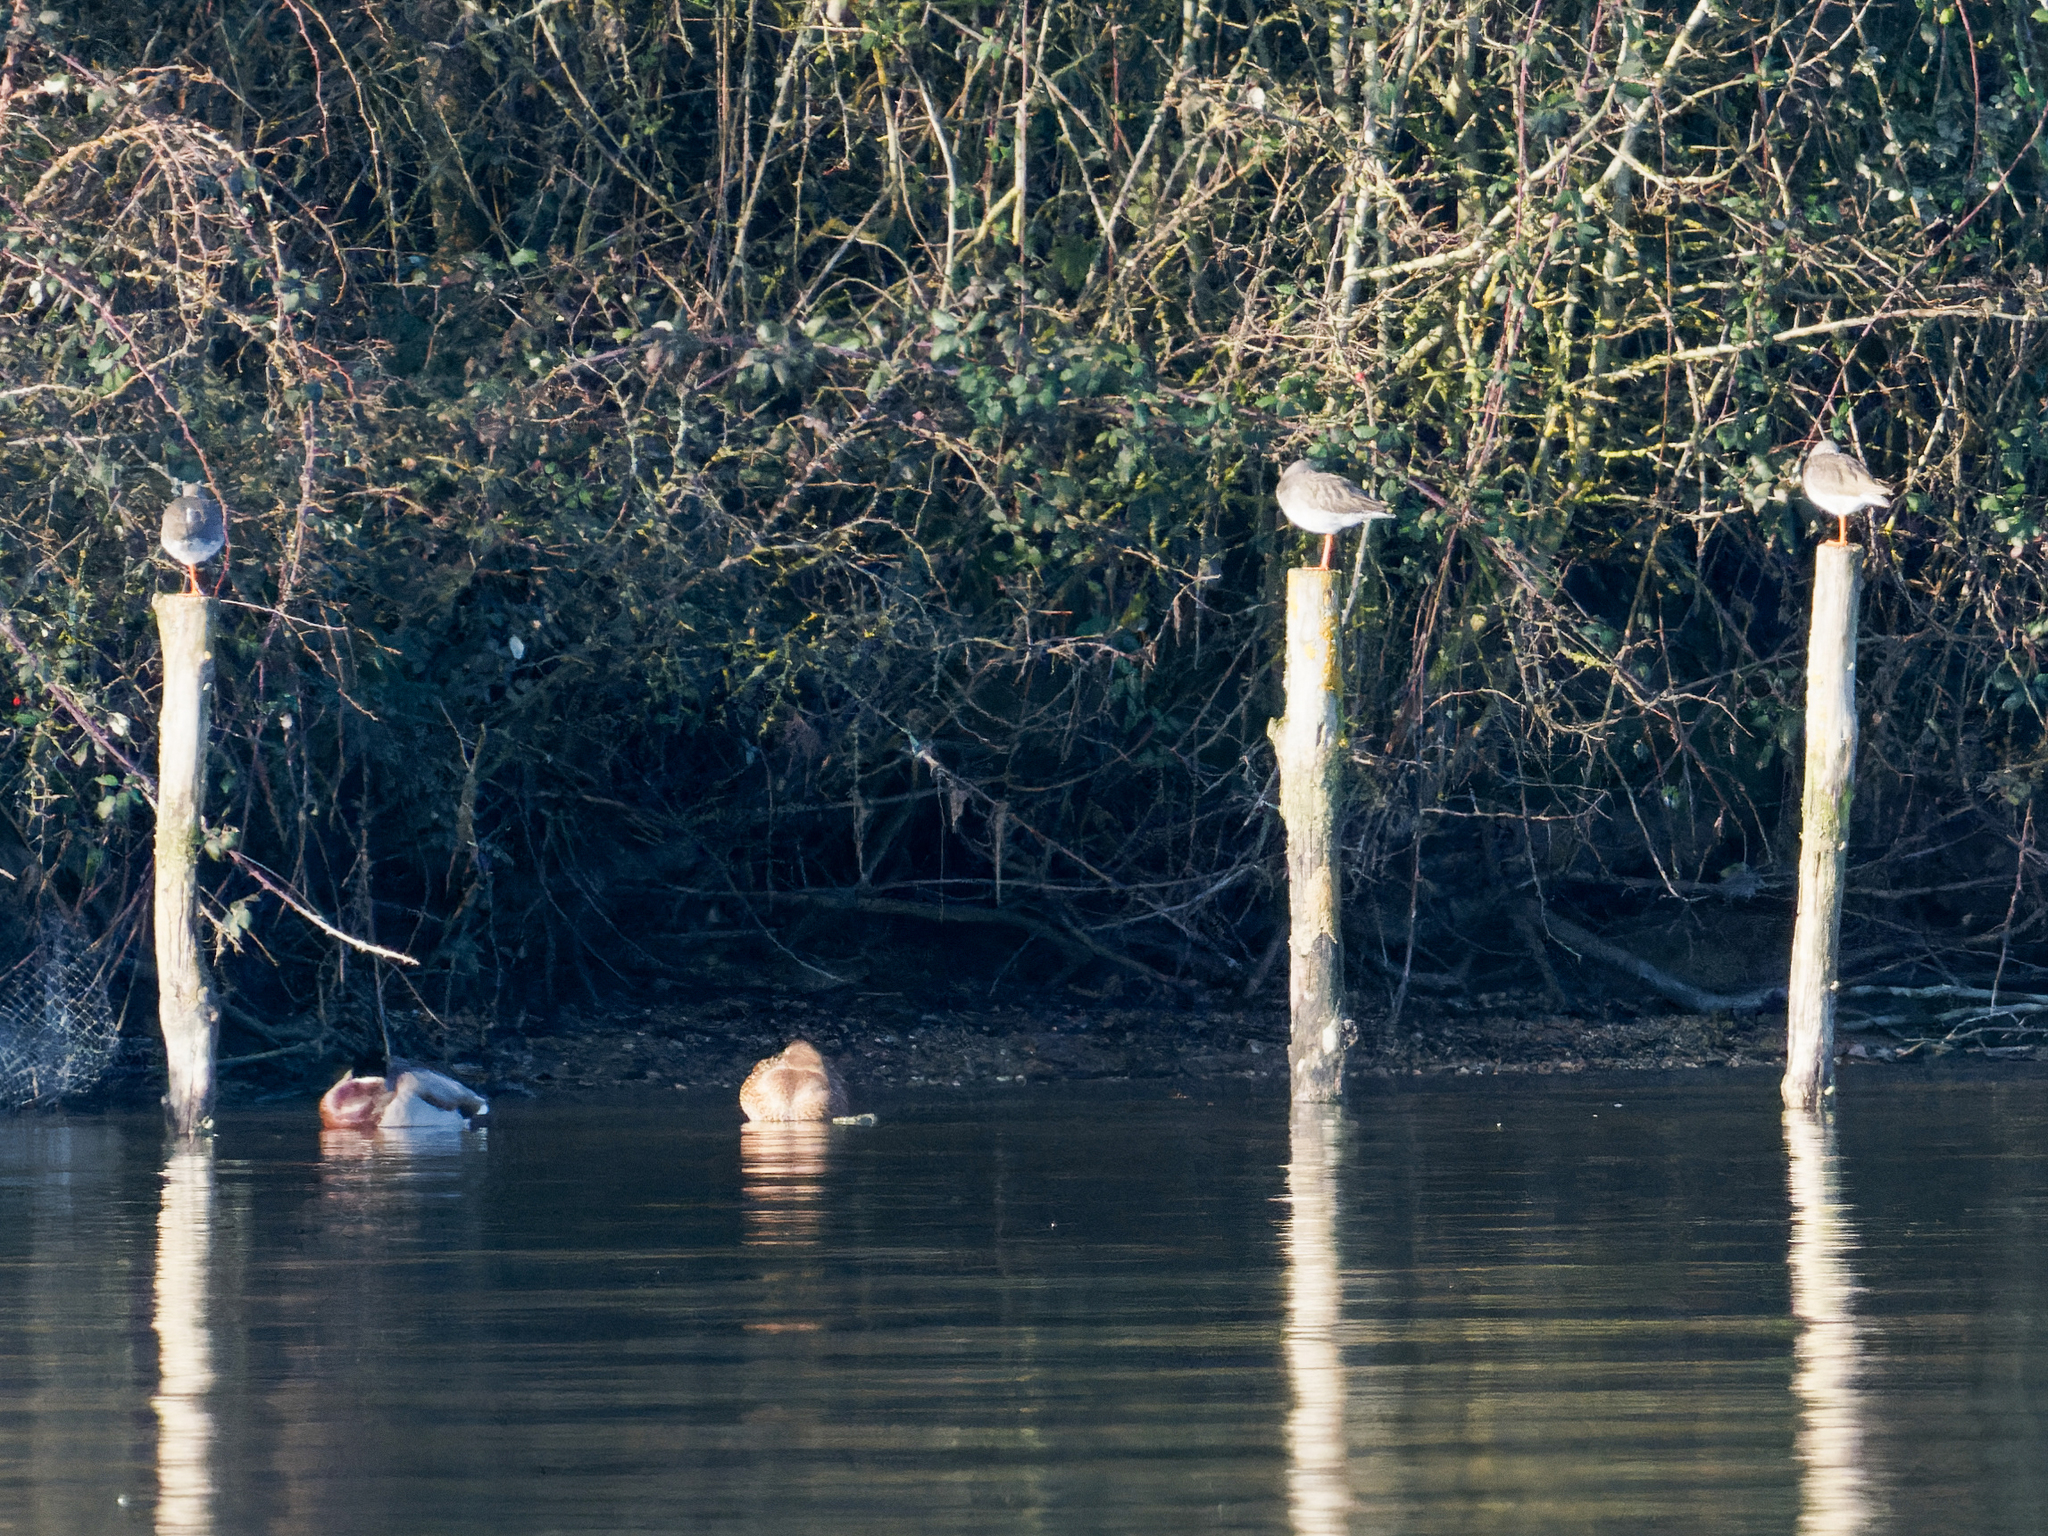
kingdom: Animalia
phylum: Chordata
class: Aves
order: Charadriiformes
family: Scolopacidae
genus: Tringa
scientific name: Tringa totanus
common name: Common redshank
